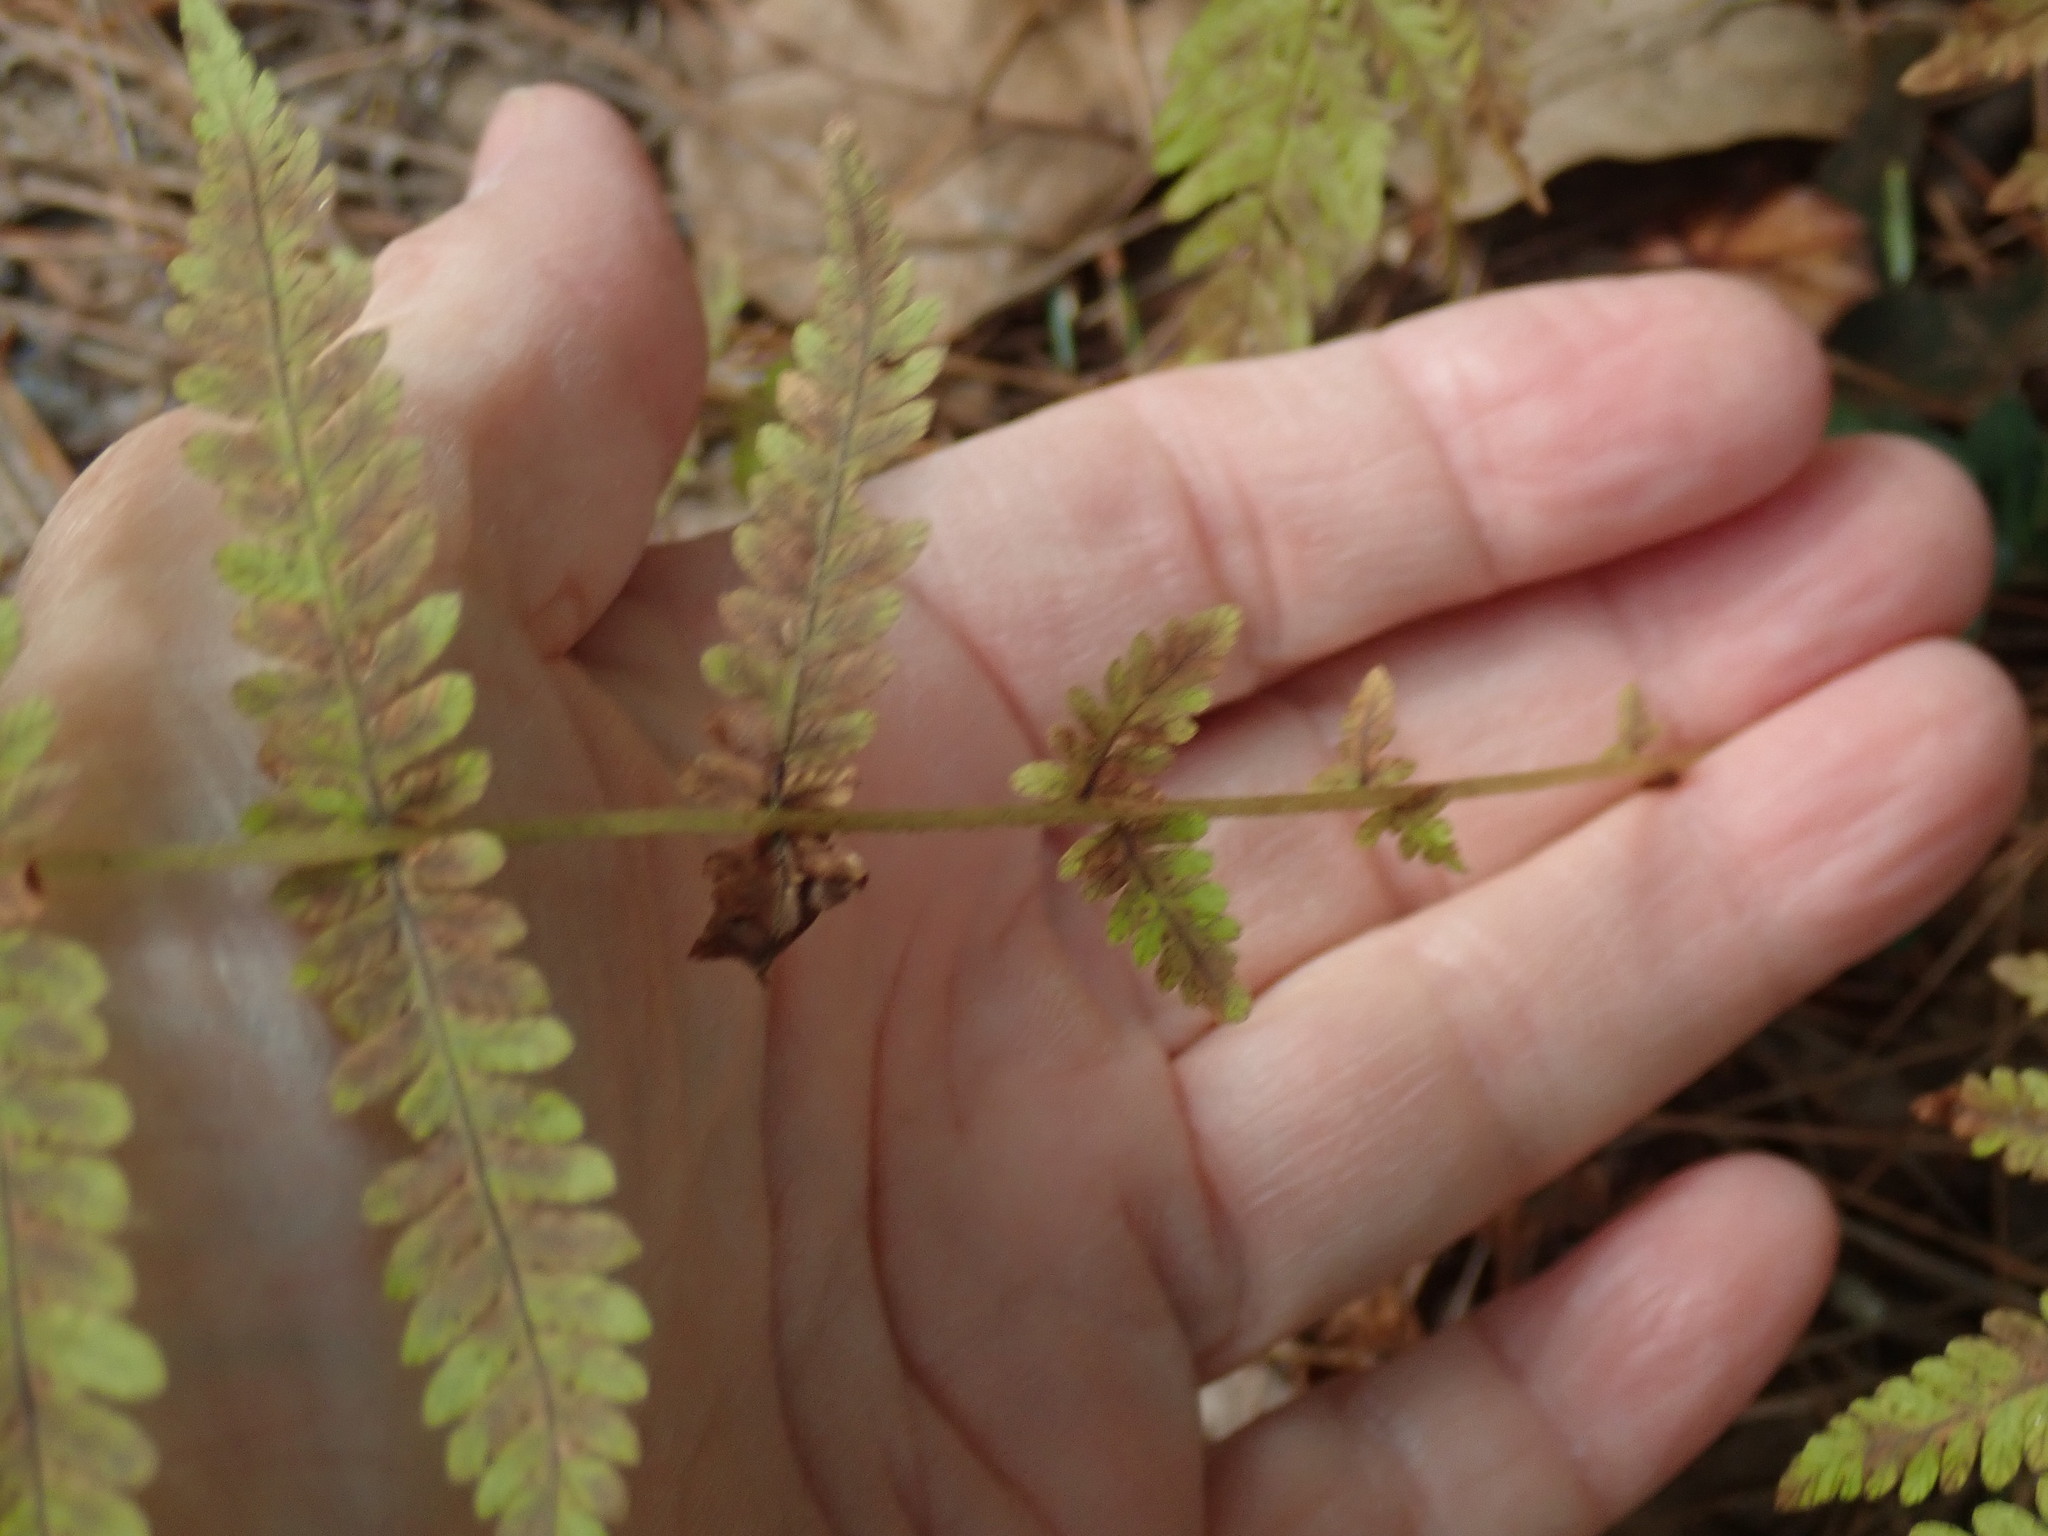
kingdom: Plantae
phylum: Tracheophyta
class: Polypodiopsida
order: Polypodiales
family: Thelypteridaceae
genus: Amauropelta
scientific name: Amauropelta noveboracensis
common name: New york fern
